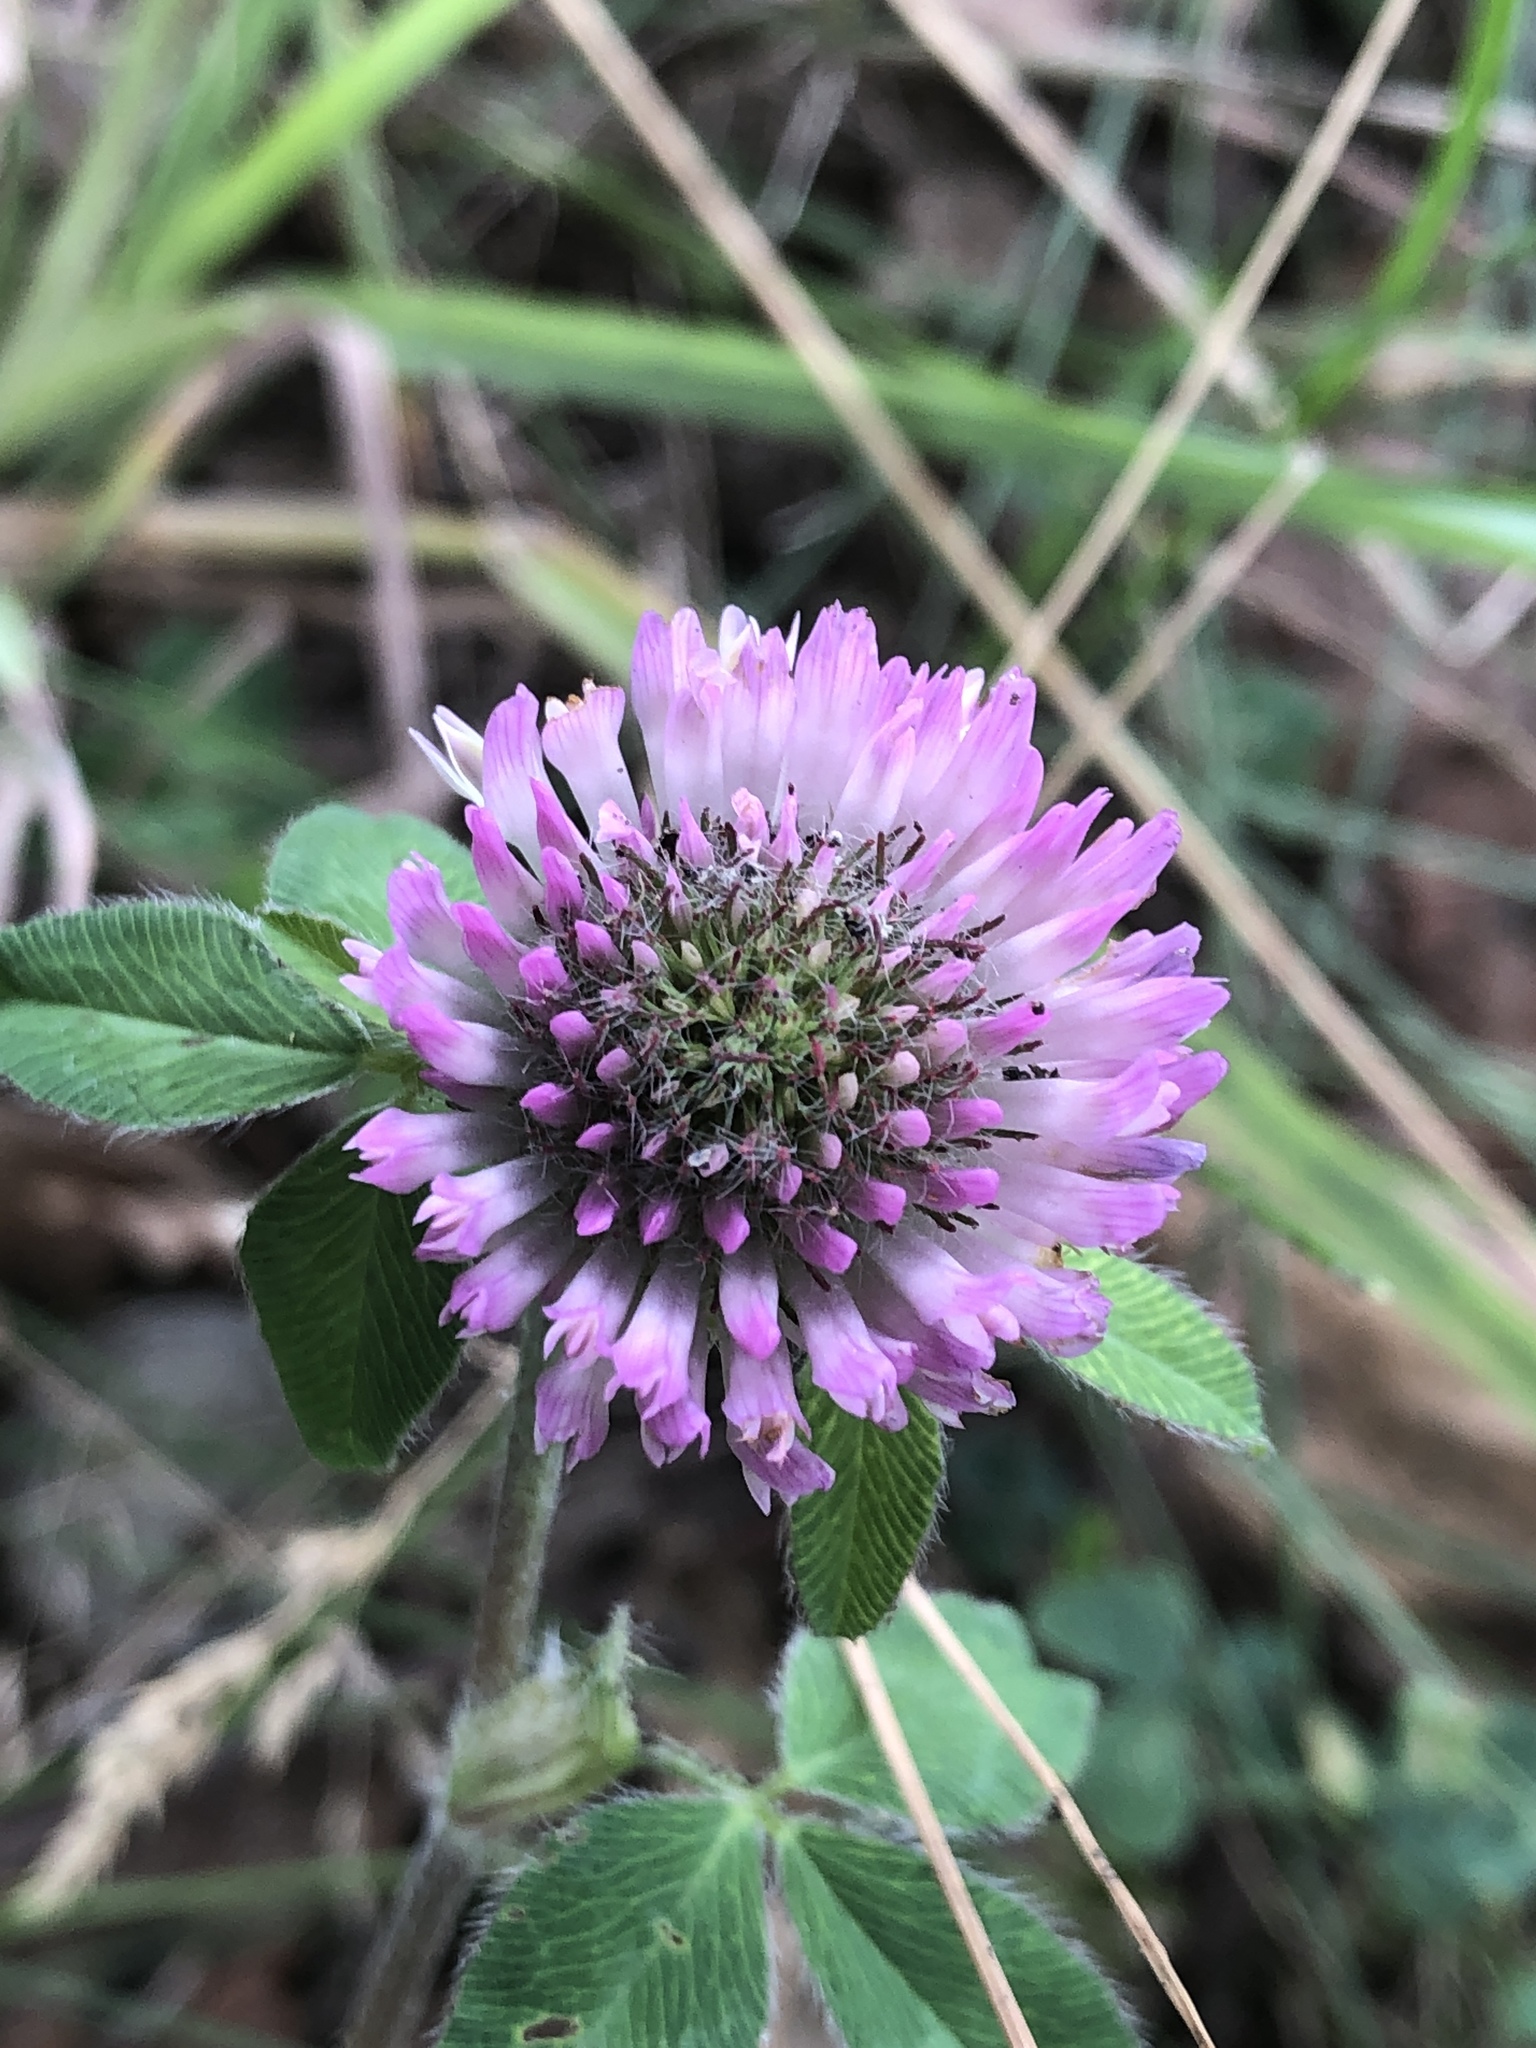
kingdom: Plantae
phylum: Tracheophyta
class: Magnoliopsida
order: Fabales
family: Fabaceae
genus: Trifolium
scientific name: Trifolium pratense
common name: Red clover
